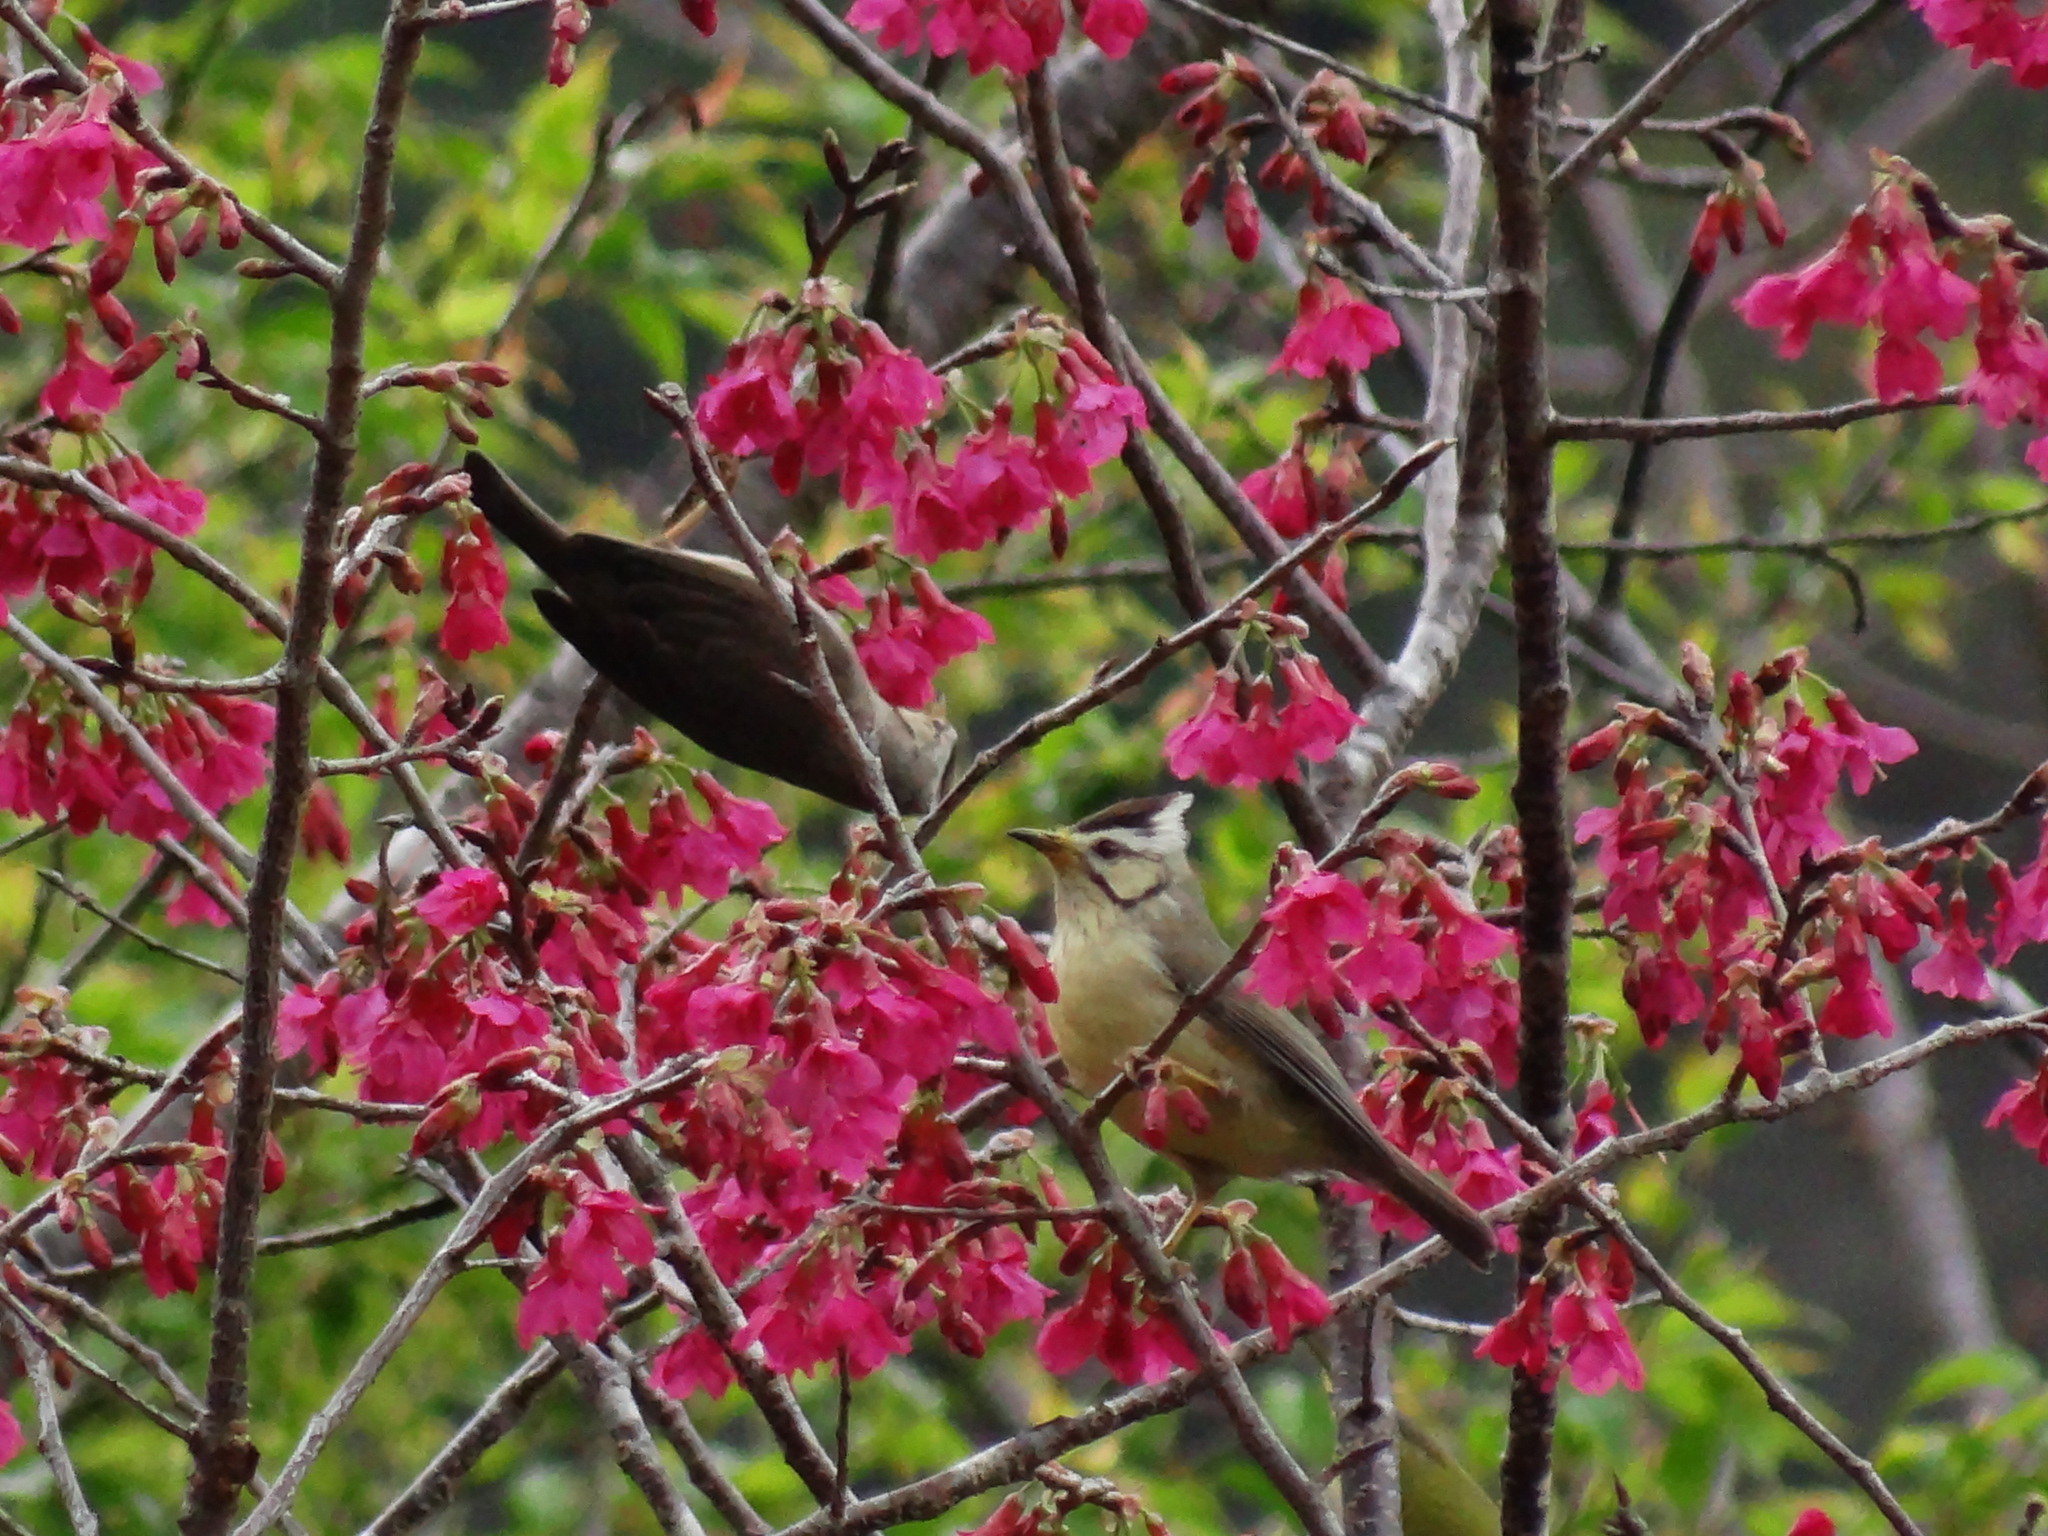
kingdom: Animalia
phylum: Chordata
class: Aves
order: Passeriformes
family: Zosteropidae
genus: Yuhina
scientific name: Yuhina brunneiceps
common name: Taiwan yuhina
